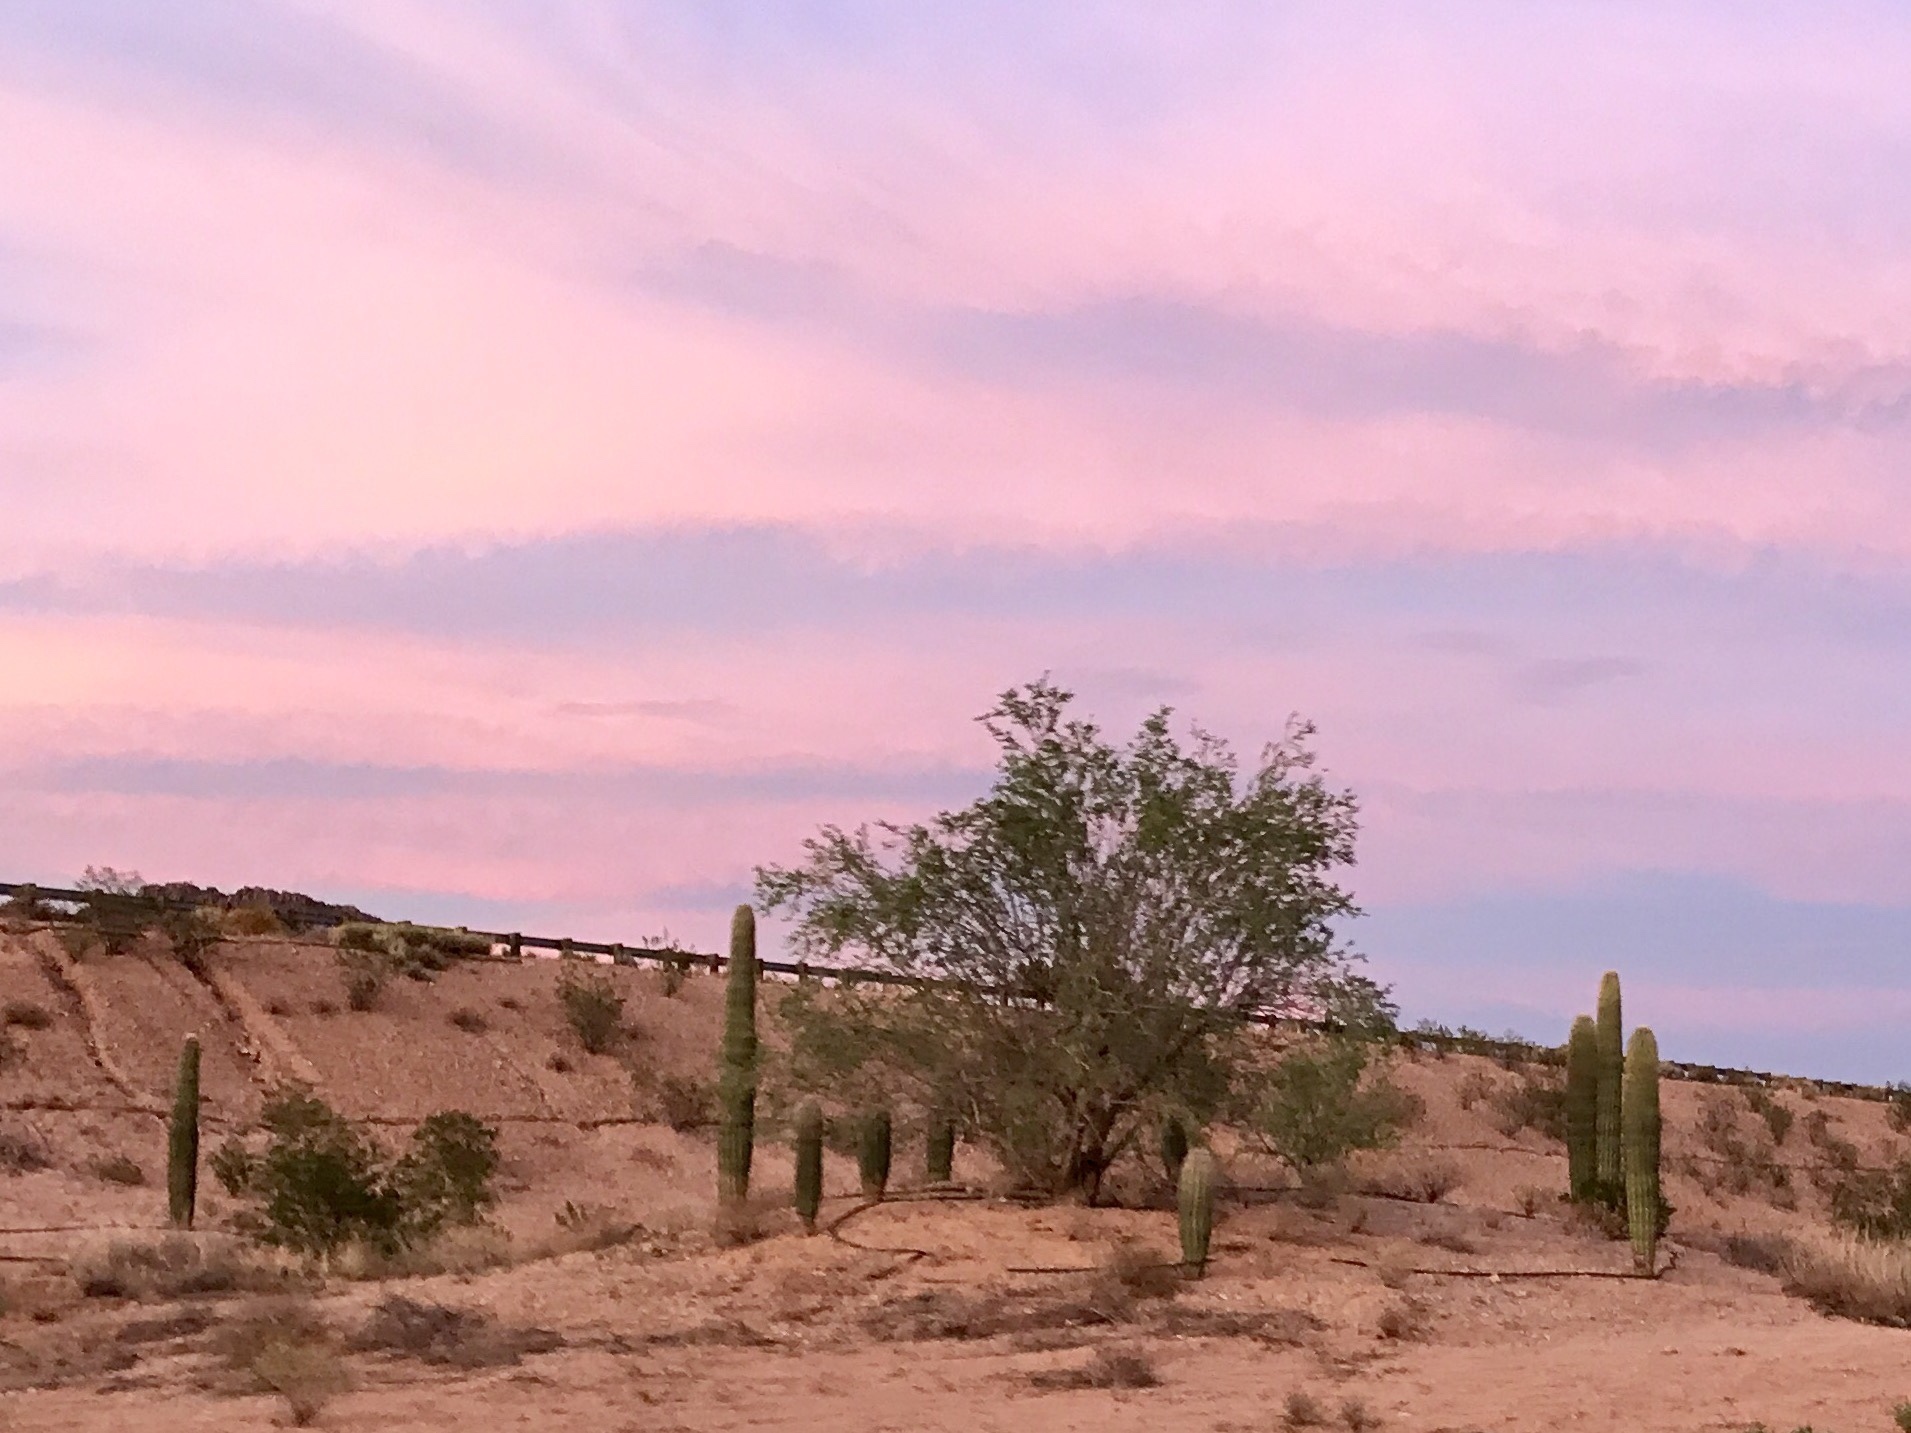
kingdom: Plantae
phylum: Tracheophyta
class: Magnoliopsida
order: Caryophyllales
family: Cactaceae
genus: Carnegiea
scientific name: Carnegiea gigantea
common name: Saguaro
